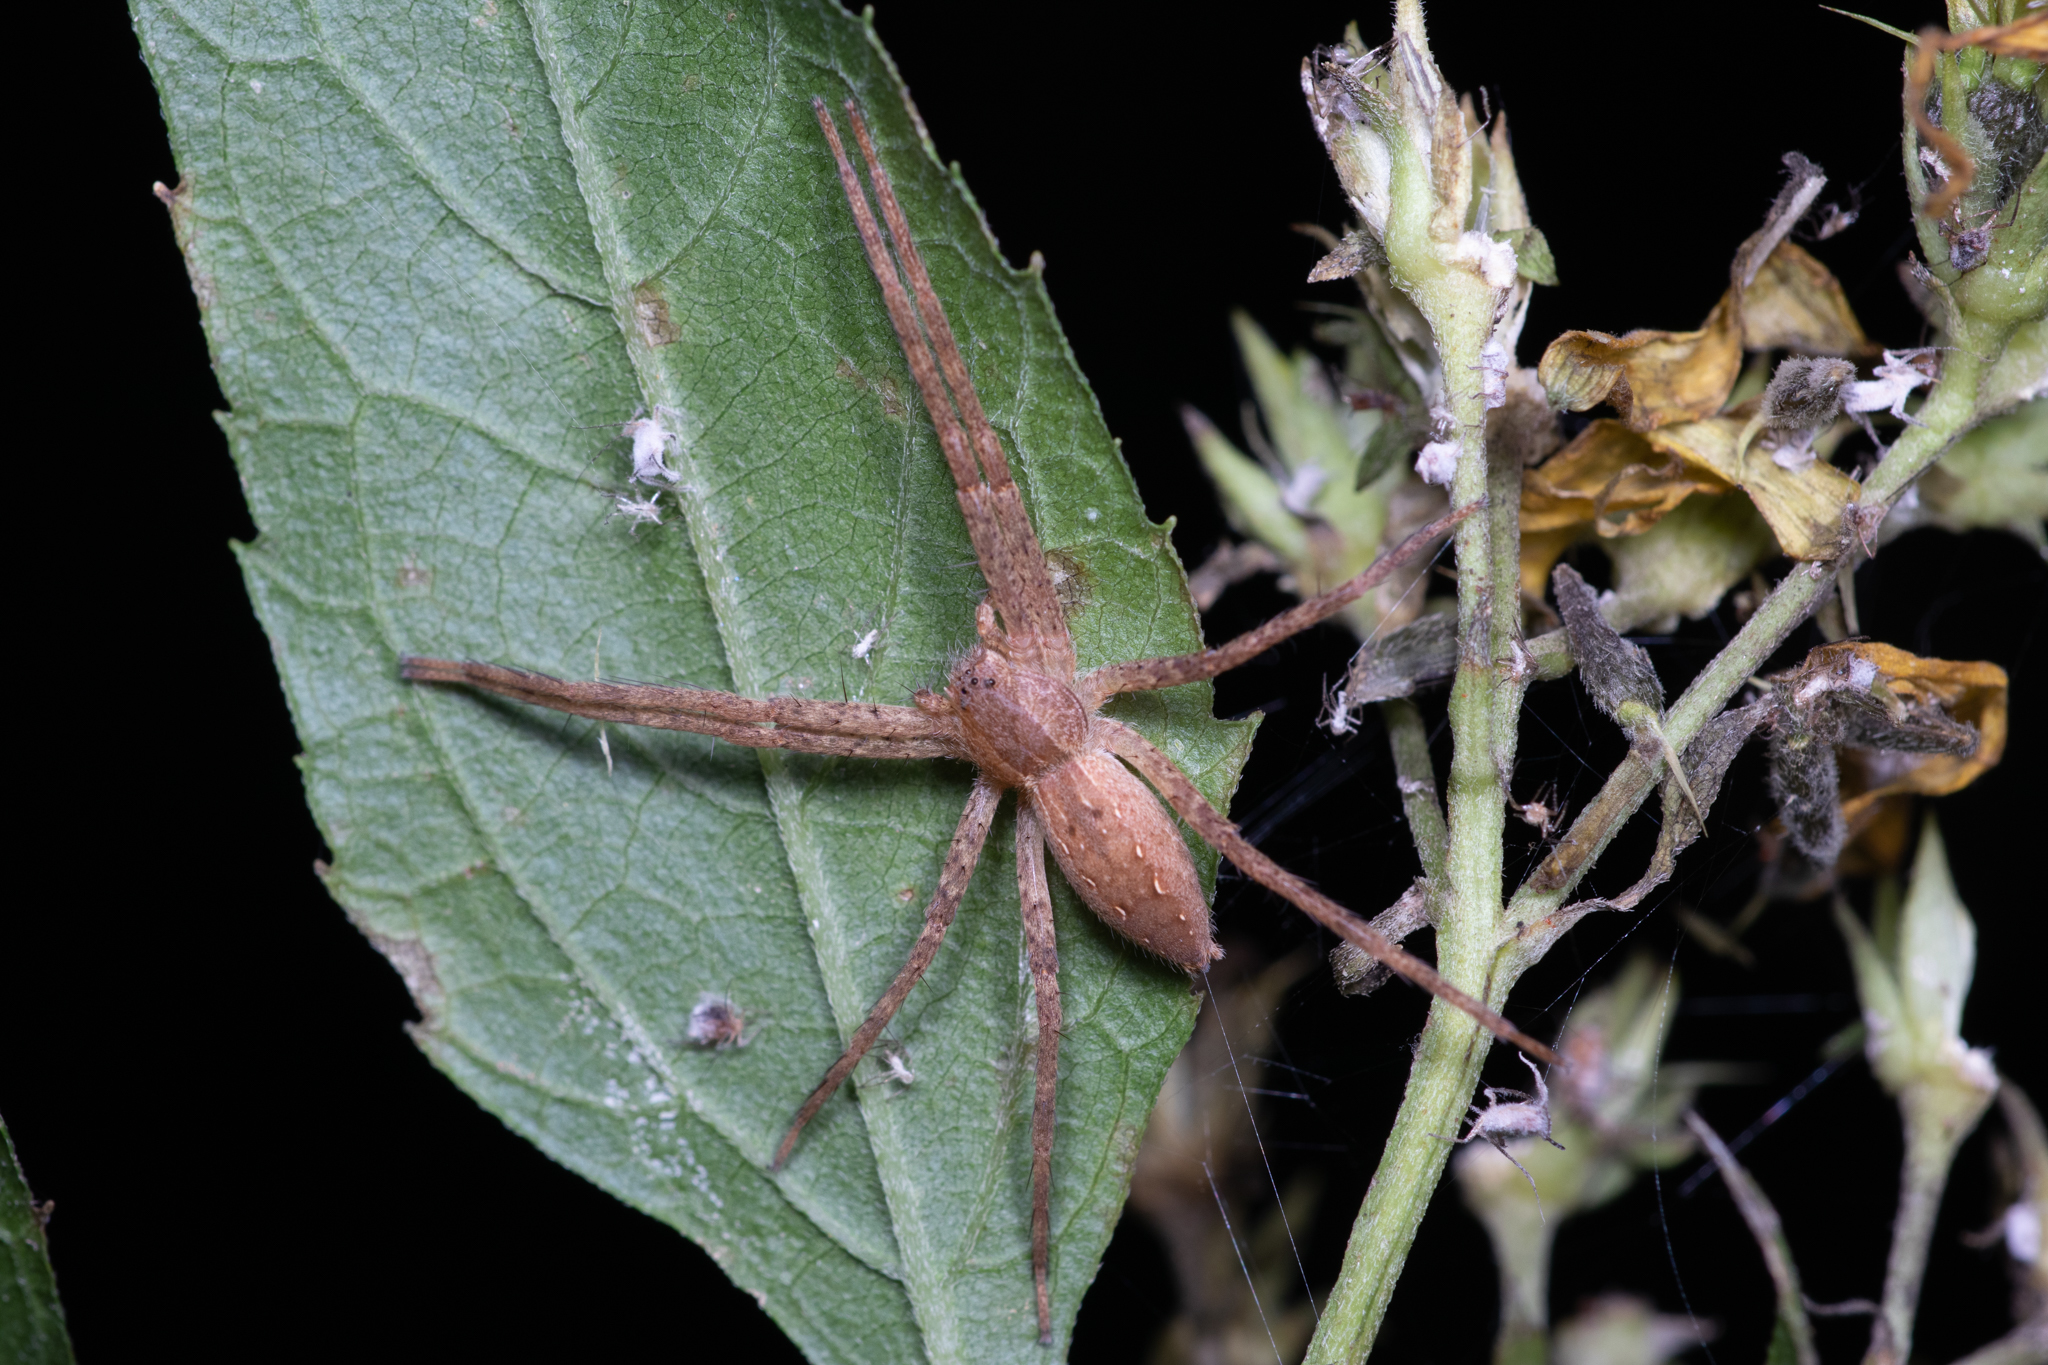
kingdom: Animalia
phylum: Arthropoda
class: Arachnida
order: Araneae
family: Pisauridae
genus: Pisaurina
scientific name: Pisaurina mira
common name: American nursery web spider
